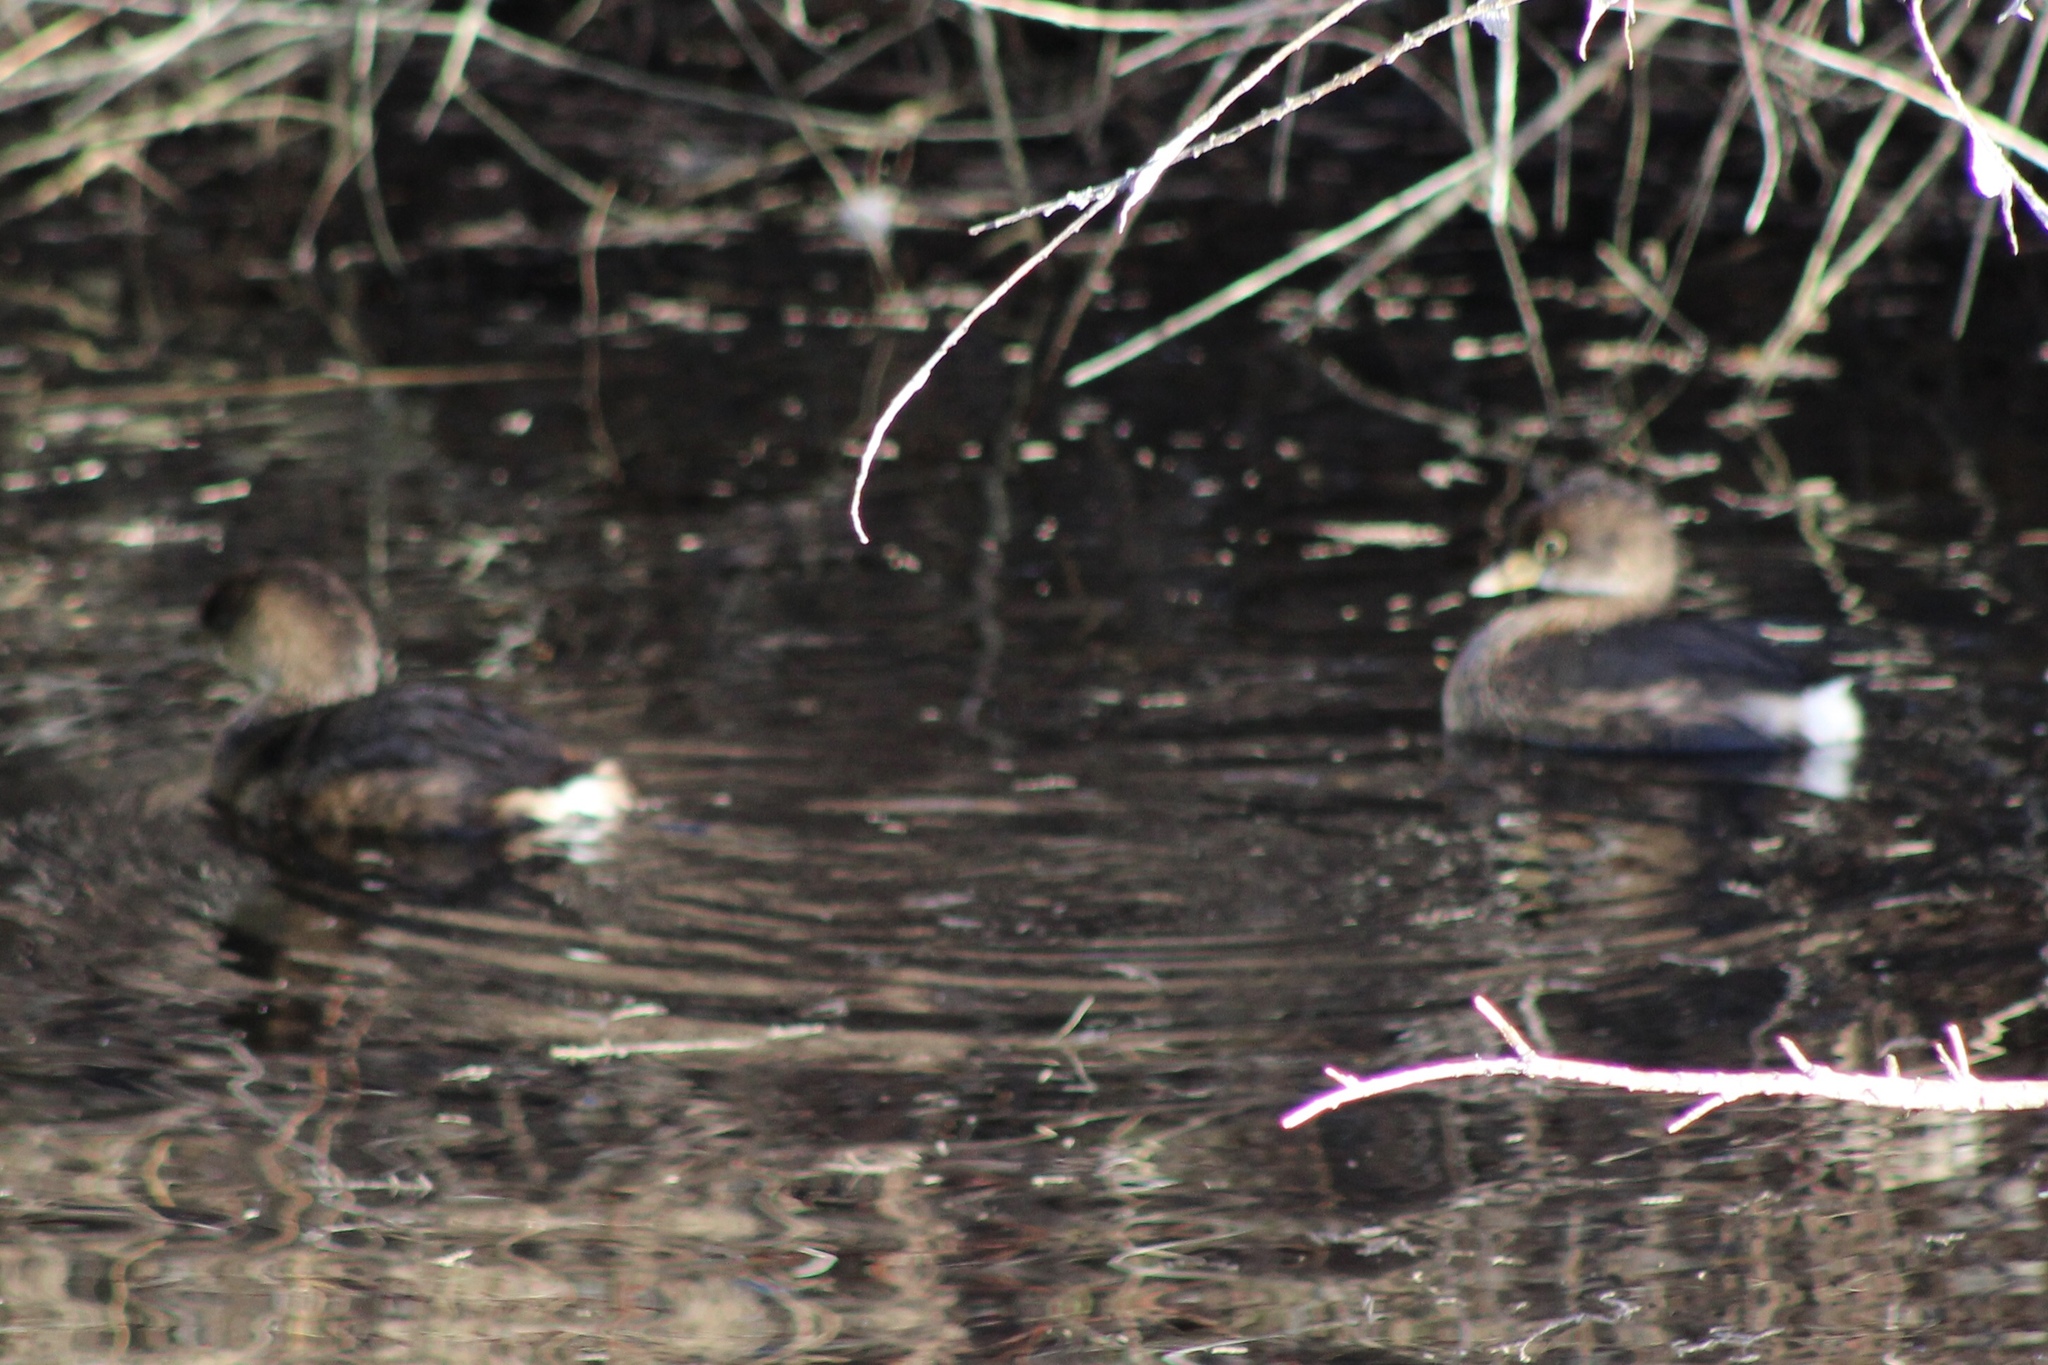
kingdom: Animalia
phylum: Chordata
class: Aves
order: Podicipediformes
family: Podicipedidae
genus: Podilymbus
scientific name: Podilymbus podiceps
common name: Pied-billed grebe
